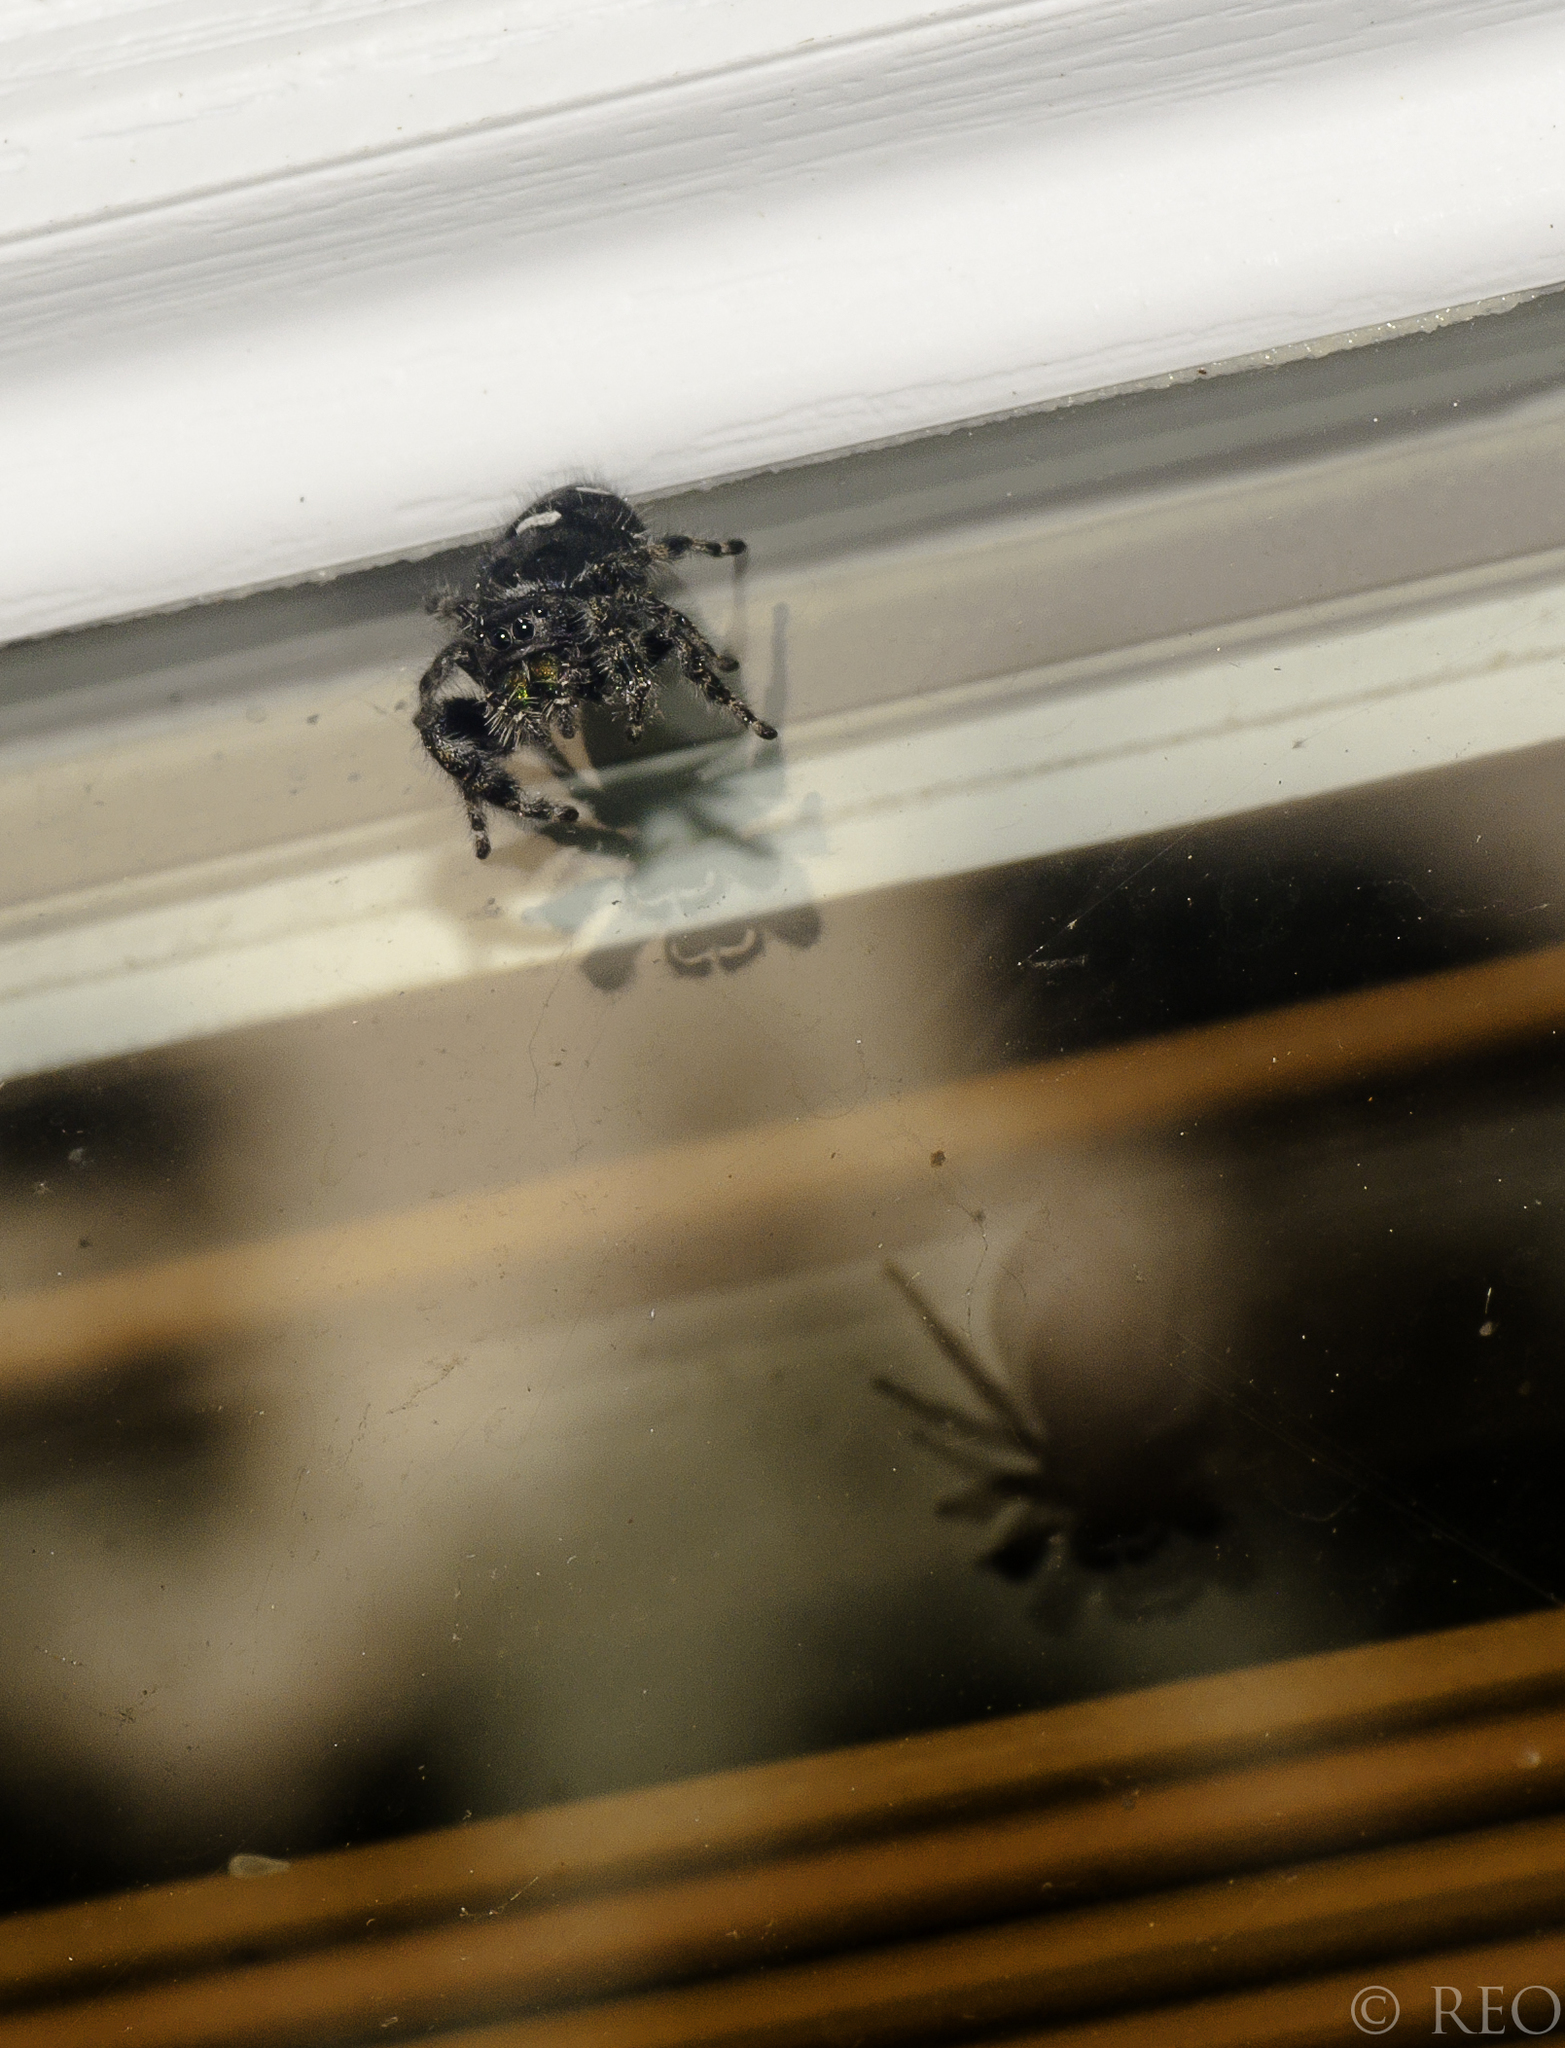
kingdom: Animalia
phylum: Arthropoda
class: Arachnida
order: Araneae
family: Salticidae
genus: Phidippus
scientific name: Phidippus audax
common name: Bold jumper
